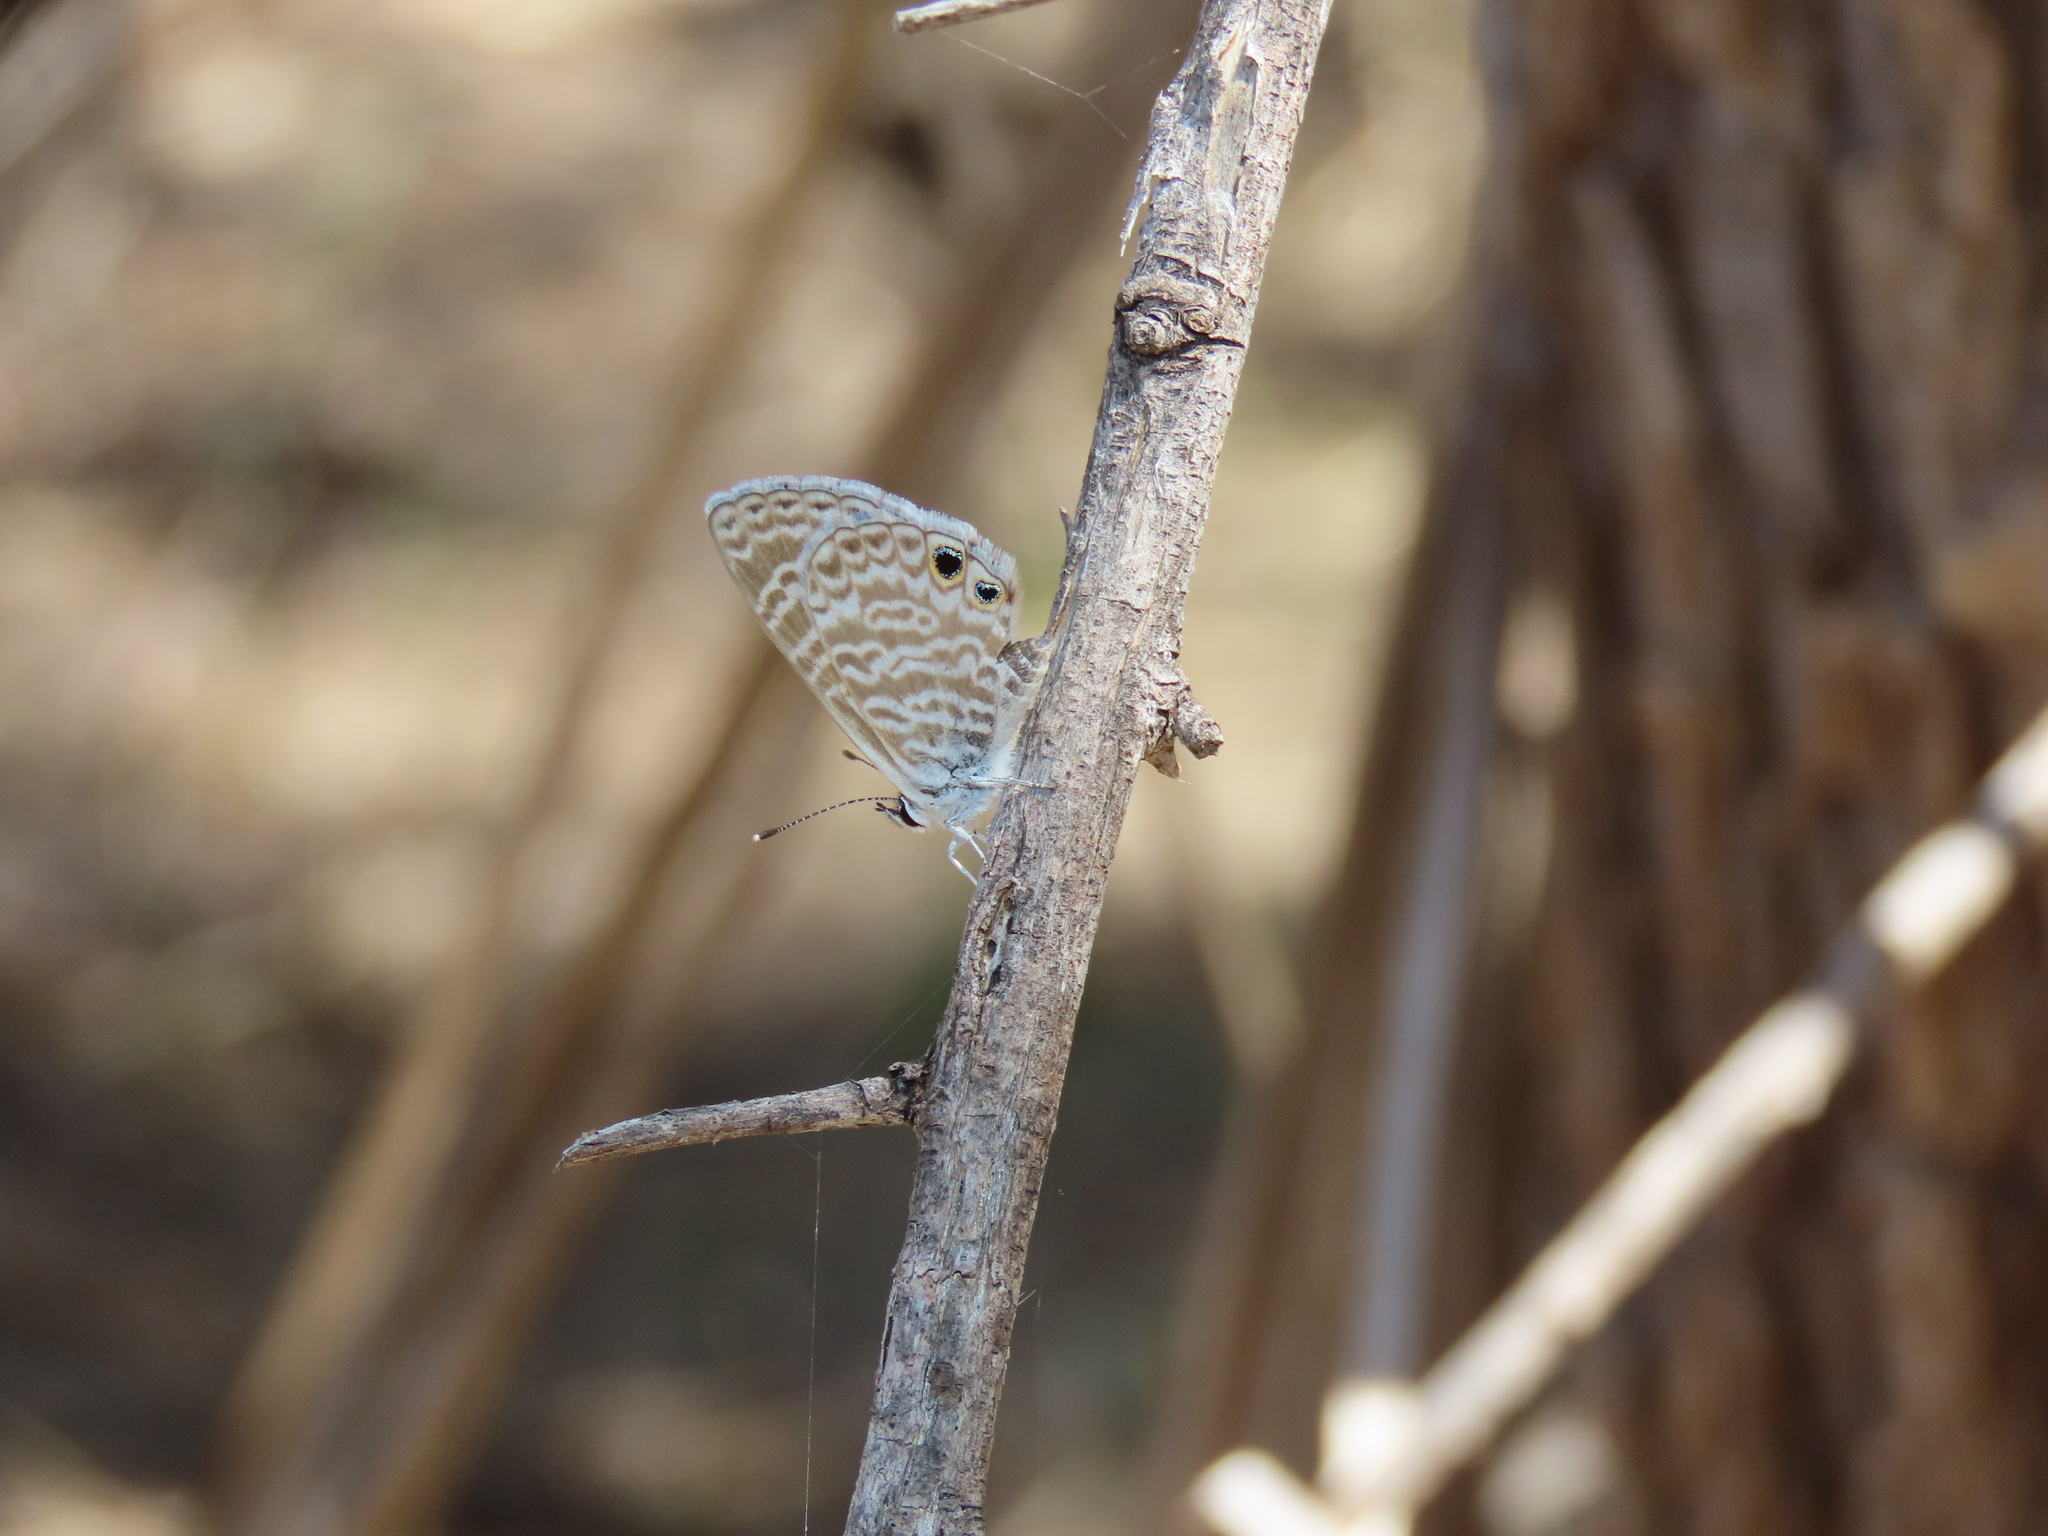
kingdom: Animalia
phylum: Arthropoda
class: Insecta
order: Lepidoptera
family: Lycaenidae
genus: Leptotes
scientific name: Leptotes marina
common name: Marine blue
